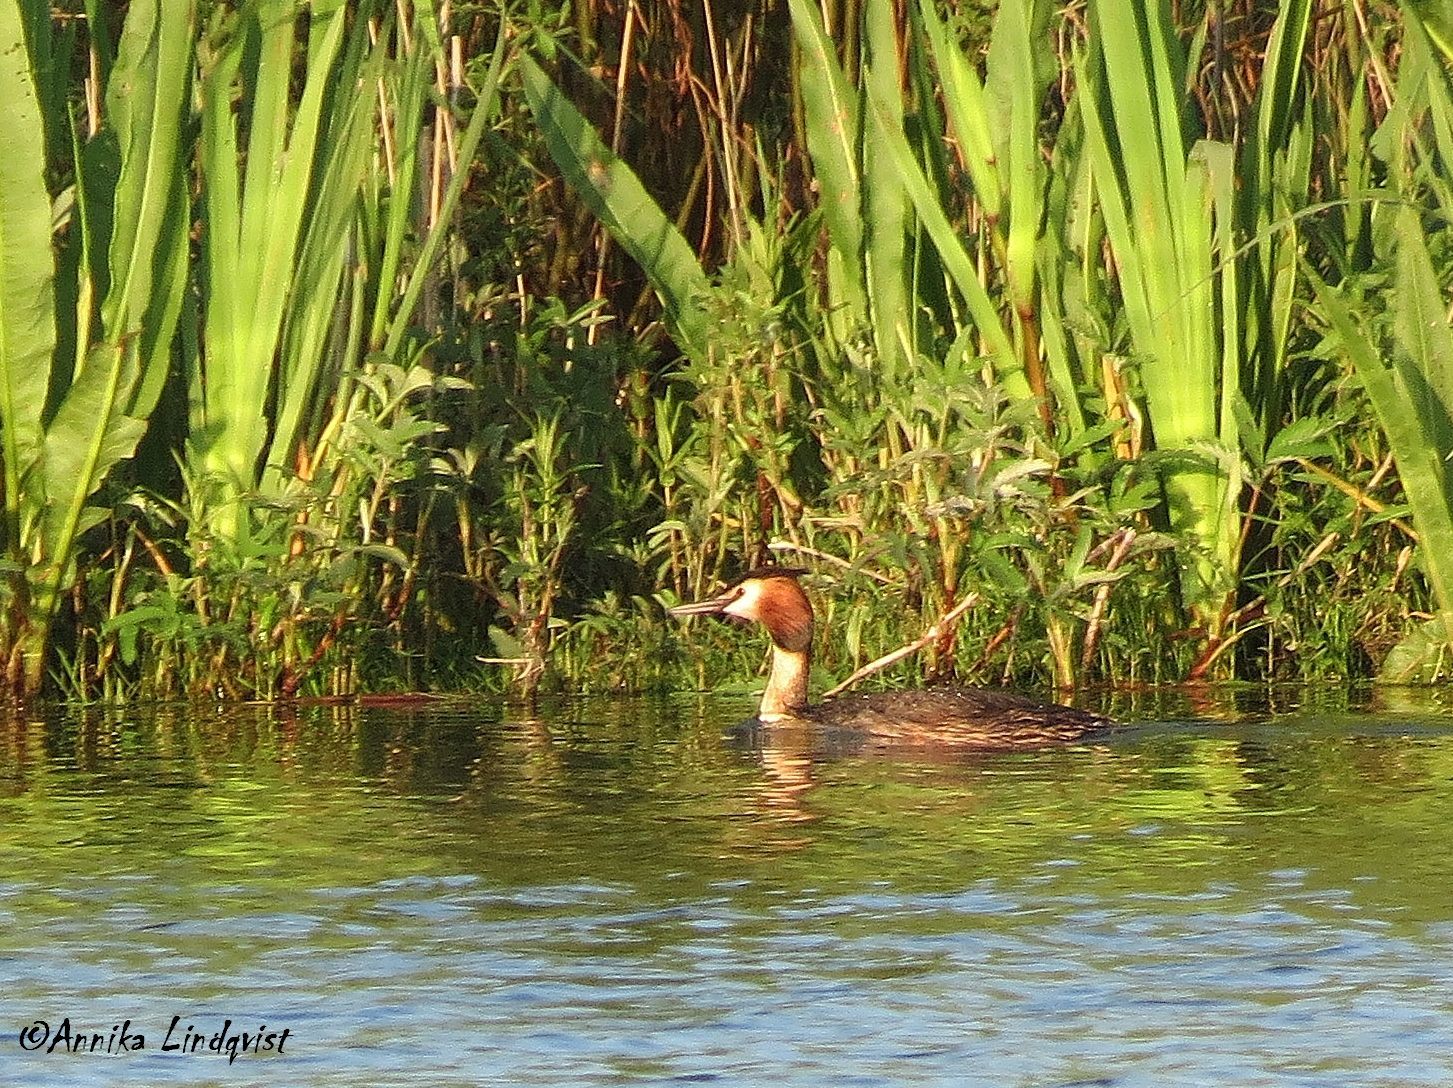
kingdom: Animalia
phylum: Chordata
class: Aves
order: Podicipediformes
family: Podicipedidae
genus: Podiceps
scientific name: Podiceps cristatus
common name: Great crested grebe
